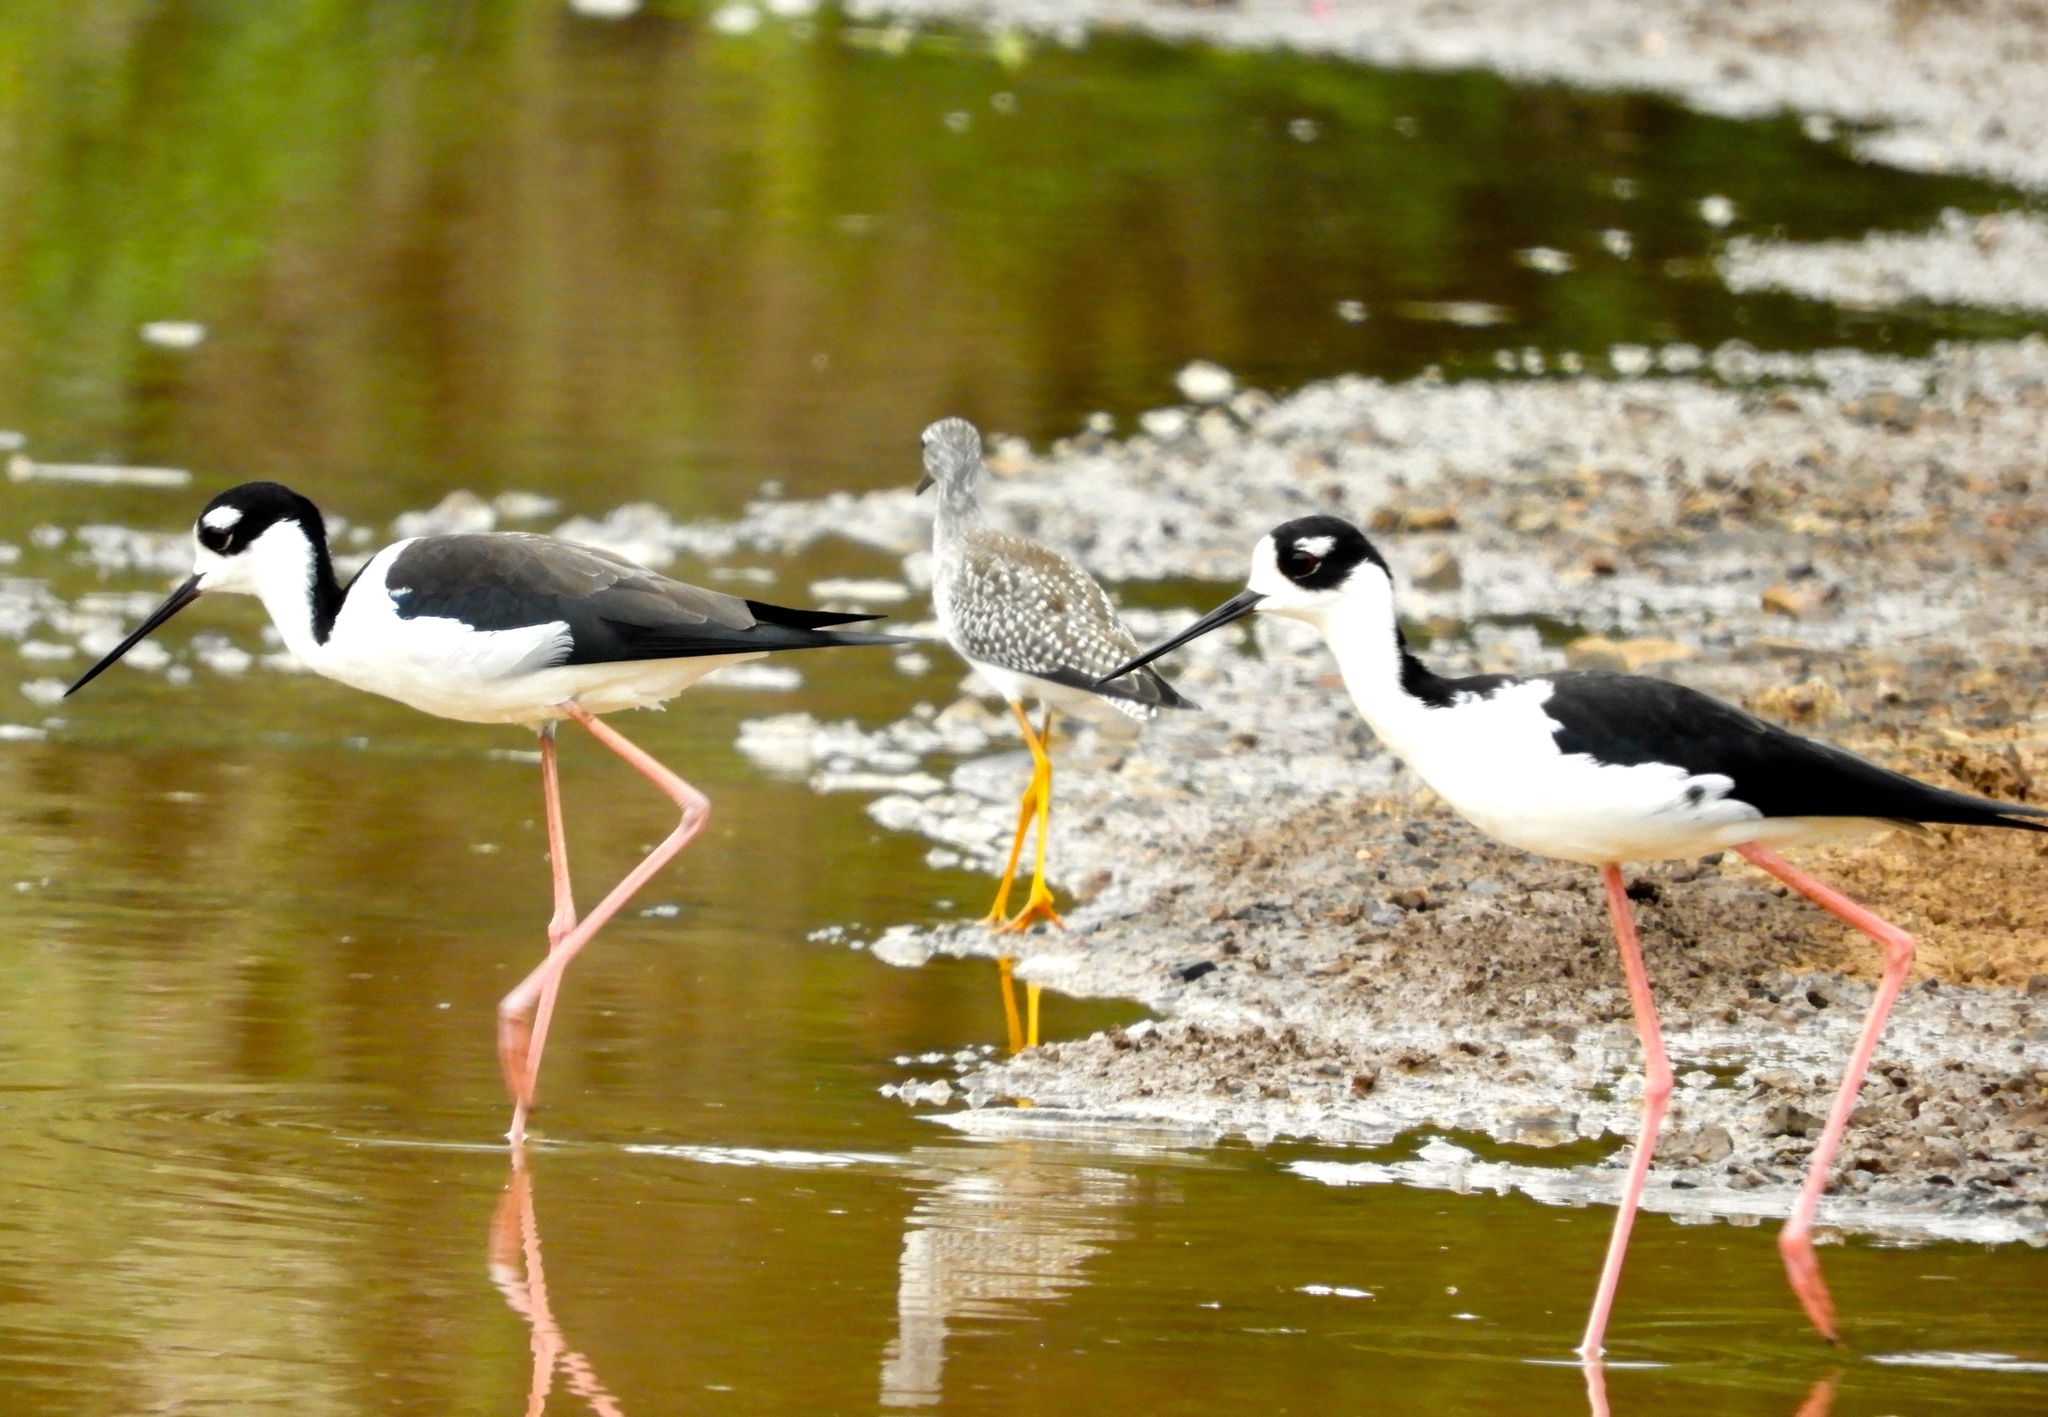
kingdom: Animalia
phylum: Chordata
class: Aves
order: Charadriiformes
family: Recurvirostridae
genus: Himantopus
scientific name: Himantopus mexicanus
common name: Black-necked stilt
